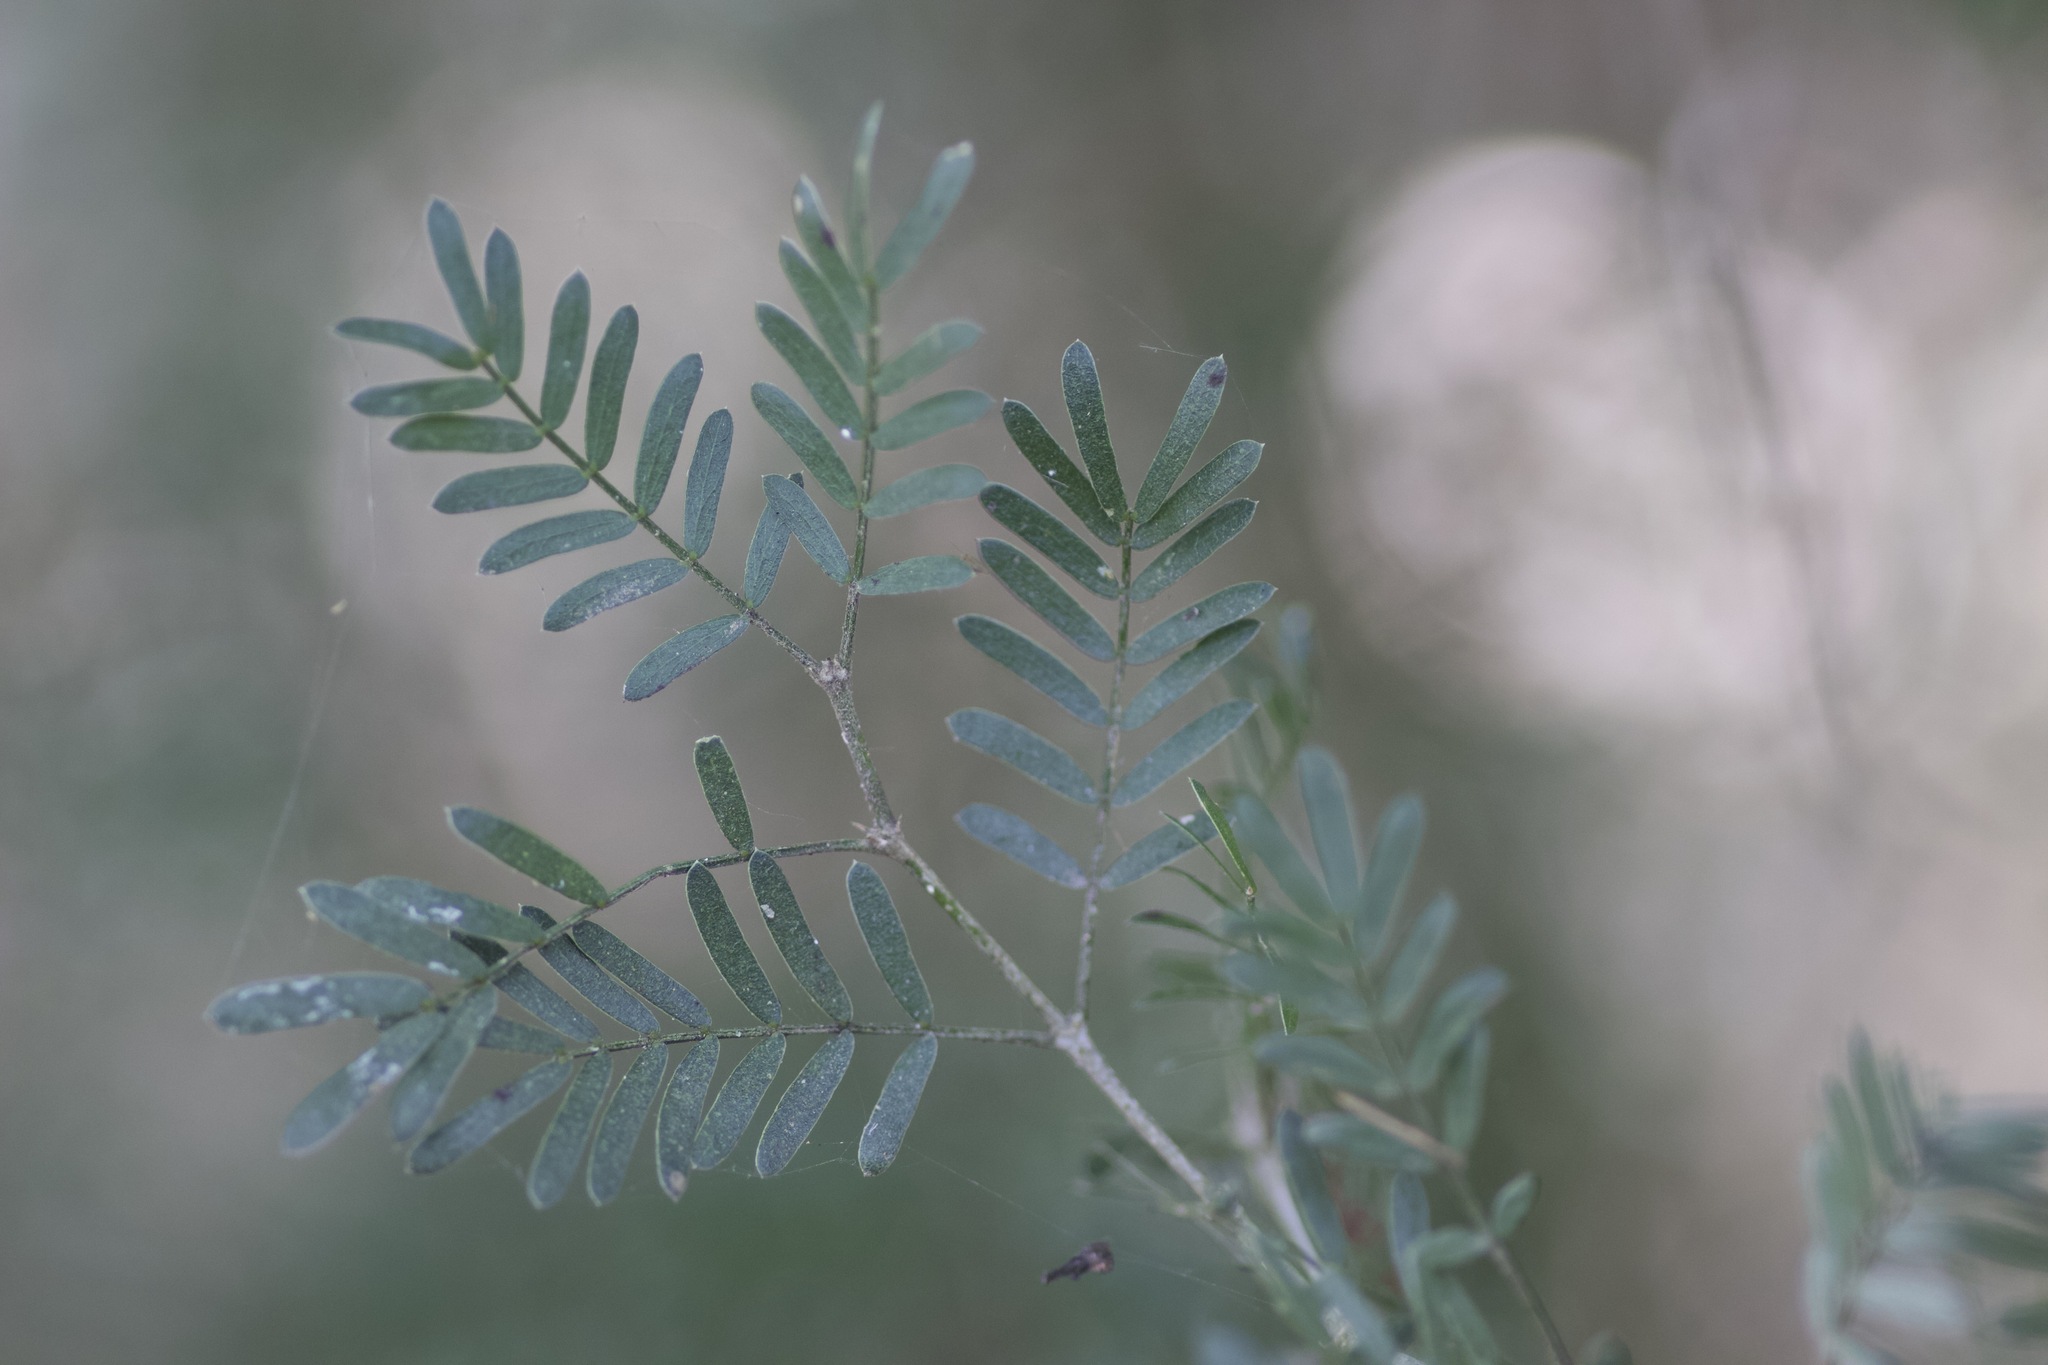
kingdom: Plantae
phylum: Tracheophyta
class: Magnoliopsida
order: Zygophyllales
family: Zygophyllaceae
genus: Porlieria
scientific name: Porlieria angustifolia
